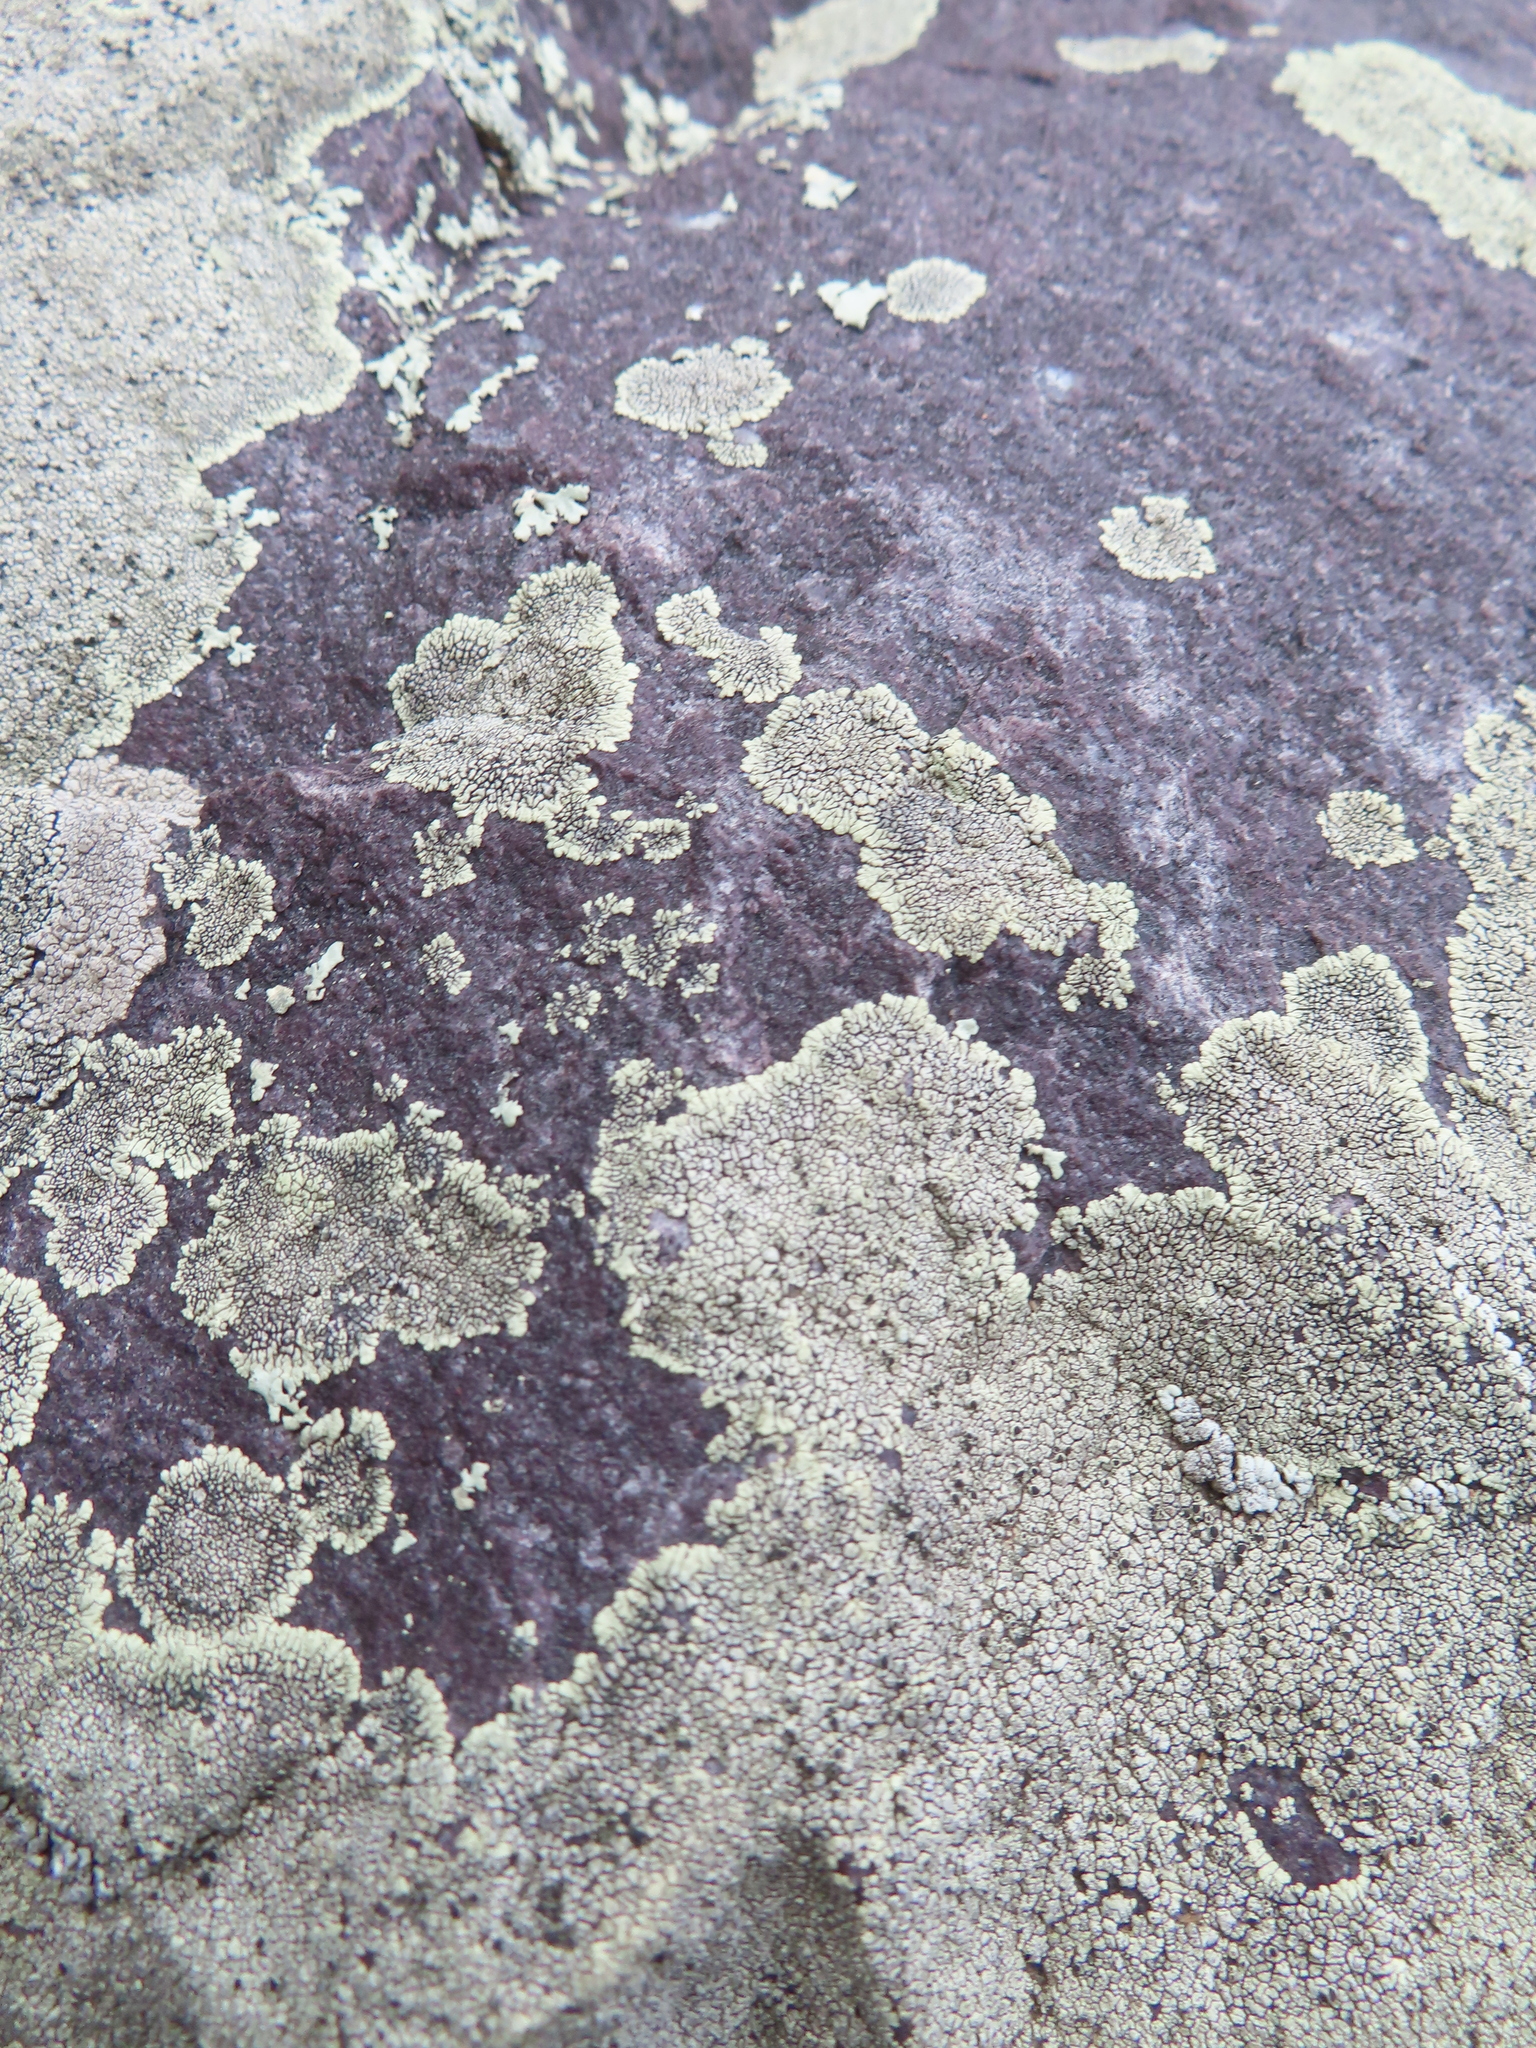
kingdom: Fungi
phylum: Ascomycota
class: Lecanoromycetes
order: Caliciales
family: Caliciaceae
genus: Dimelaena
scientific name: Dimelaena oreina
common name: Golden moonglow lichen
